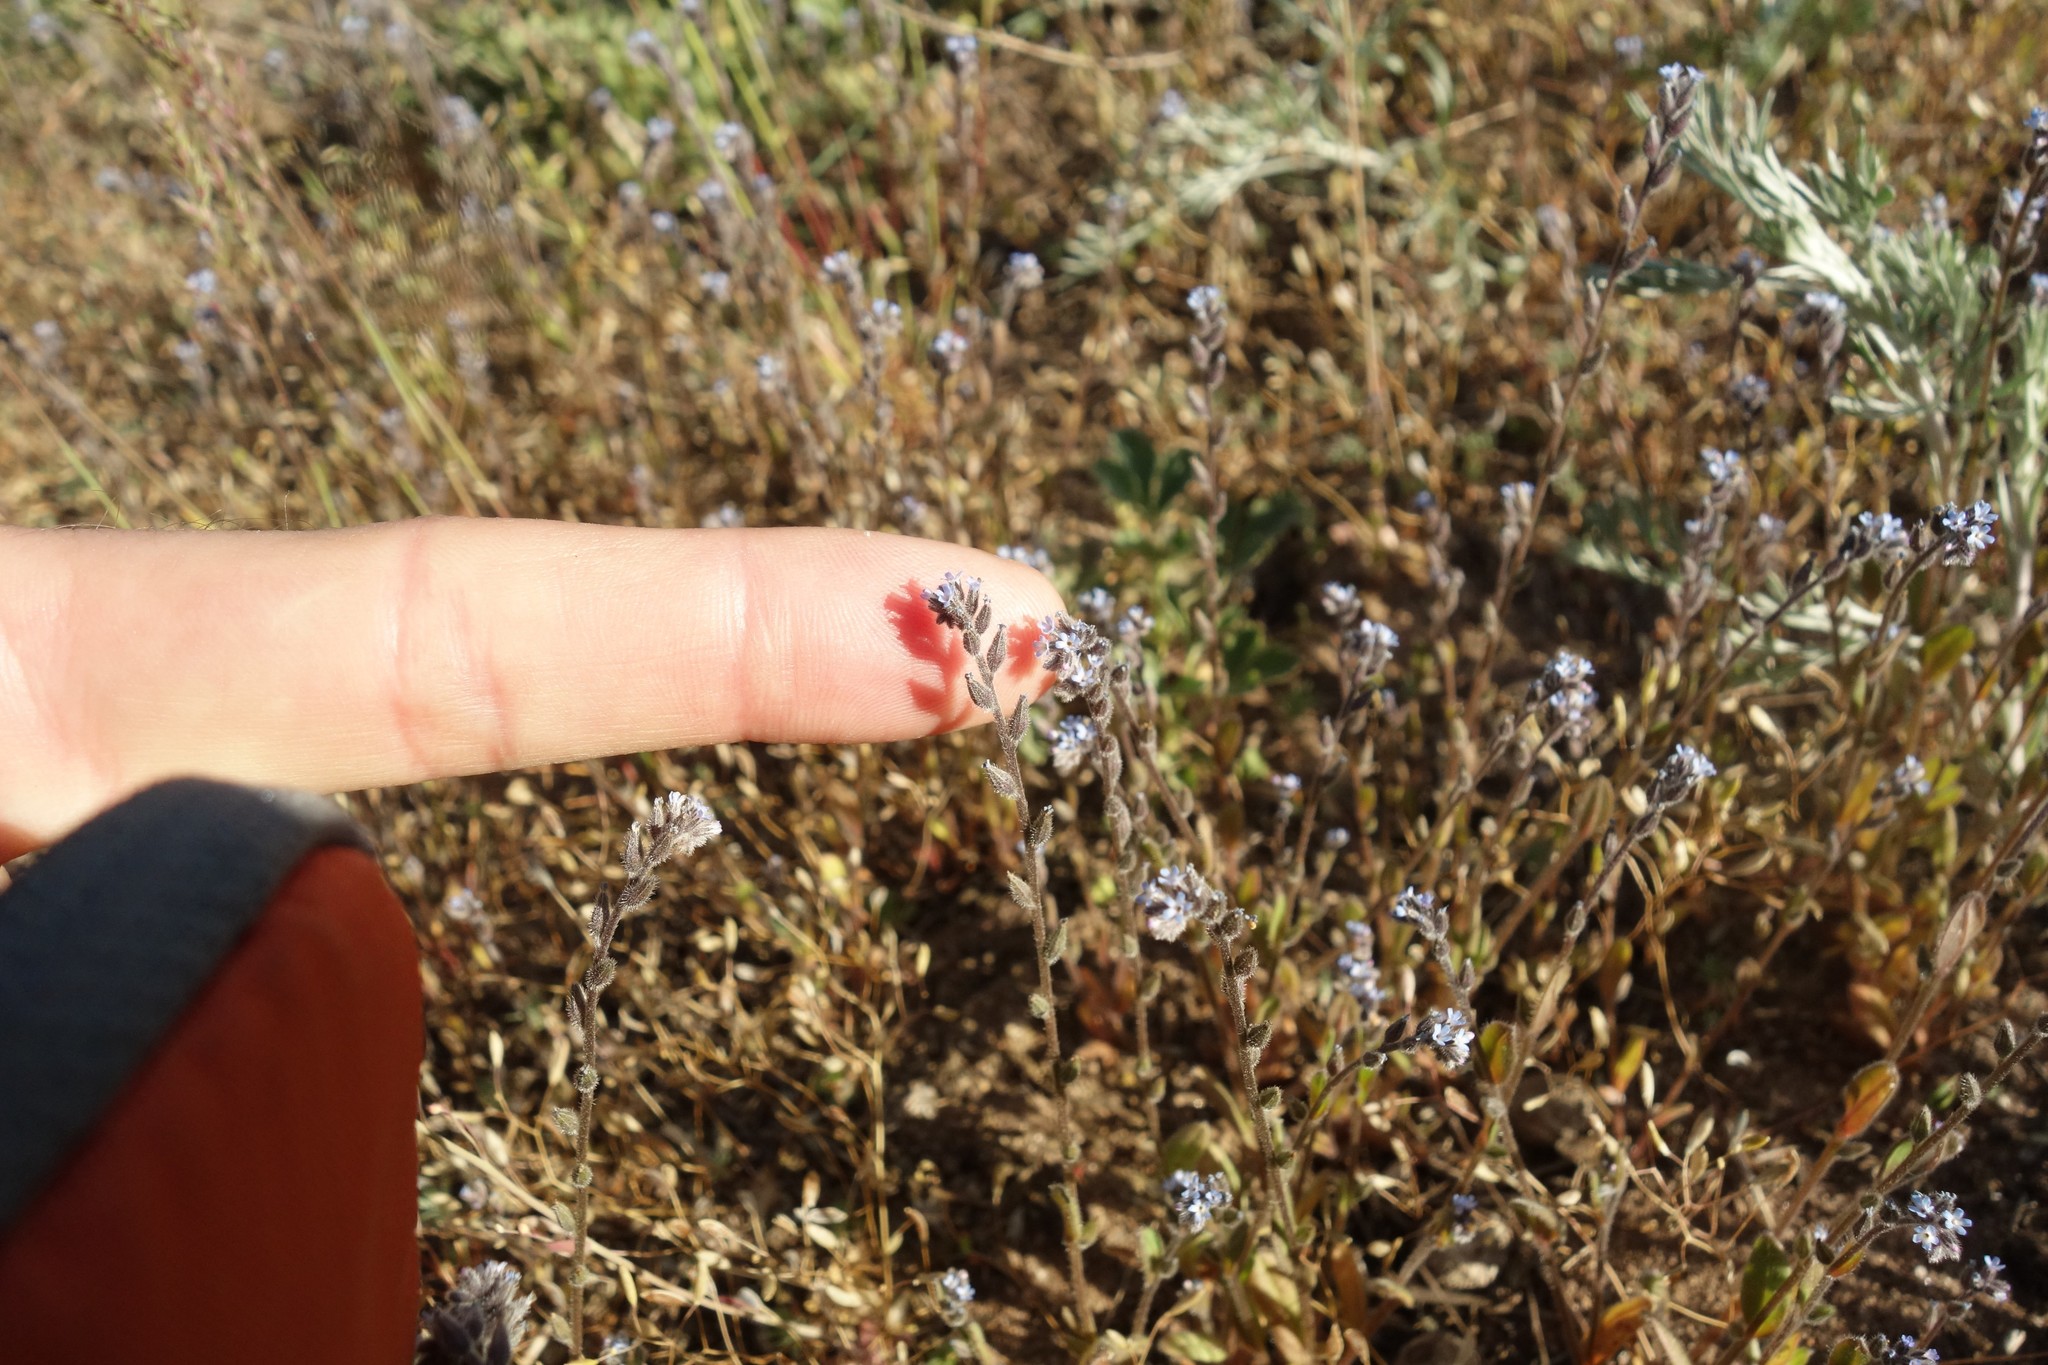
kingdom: Plantae
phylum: Tracheophyta
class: Magnoliopsida
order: Boraginales
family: Boraginaceae
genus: Myosotis
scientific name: Myosotis stricta
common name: Strict forget-me-not
